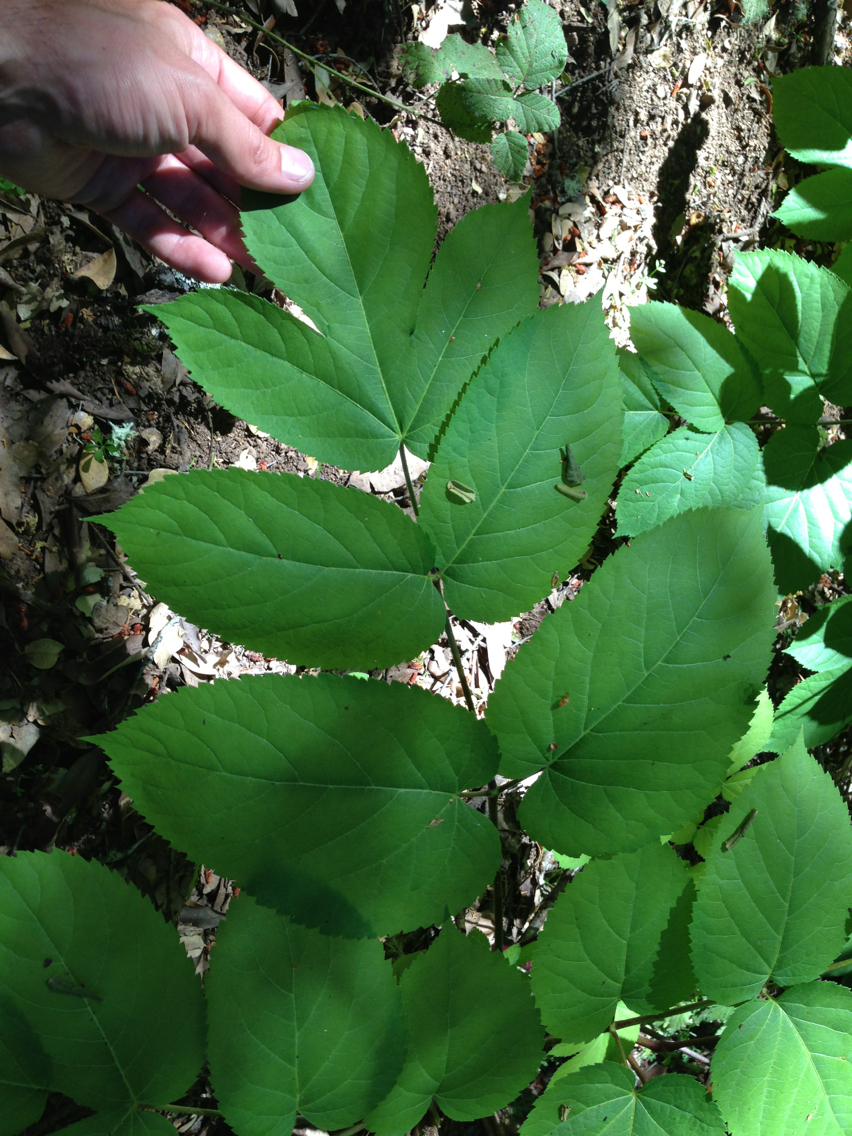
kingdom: Plantae
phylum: Tracheophyta
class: Magnoliopsida
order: Apiales
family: Araliaceae
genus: Aralia
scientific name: Aralia californica
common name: California-ginseng
